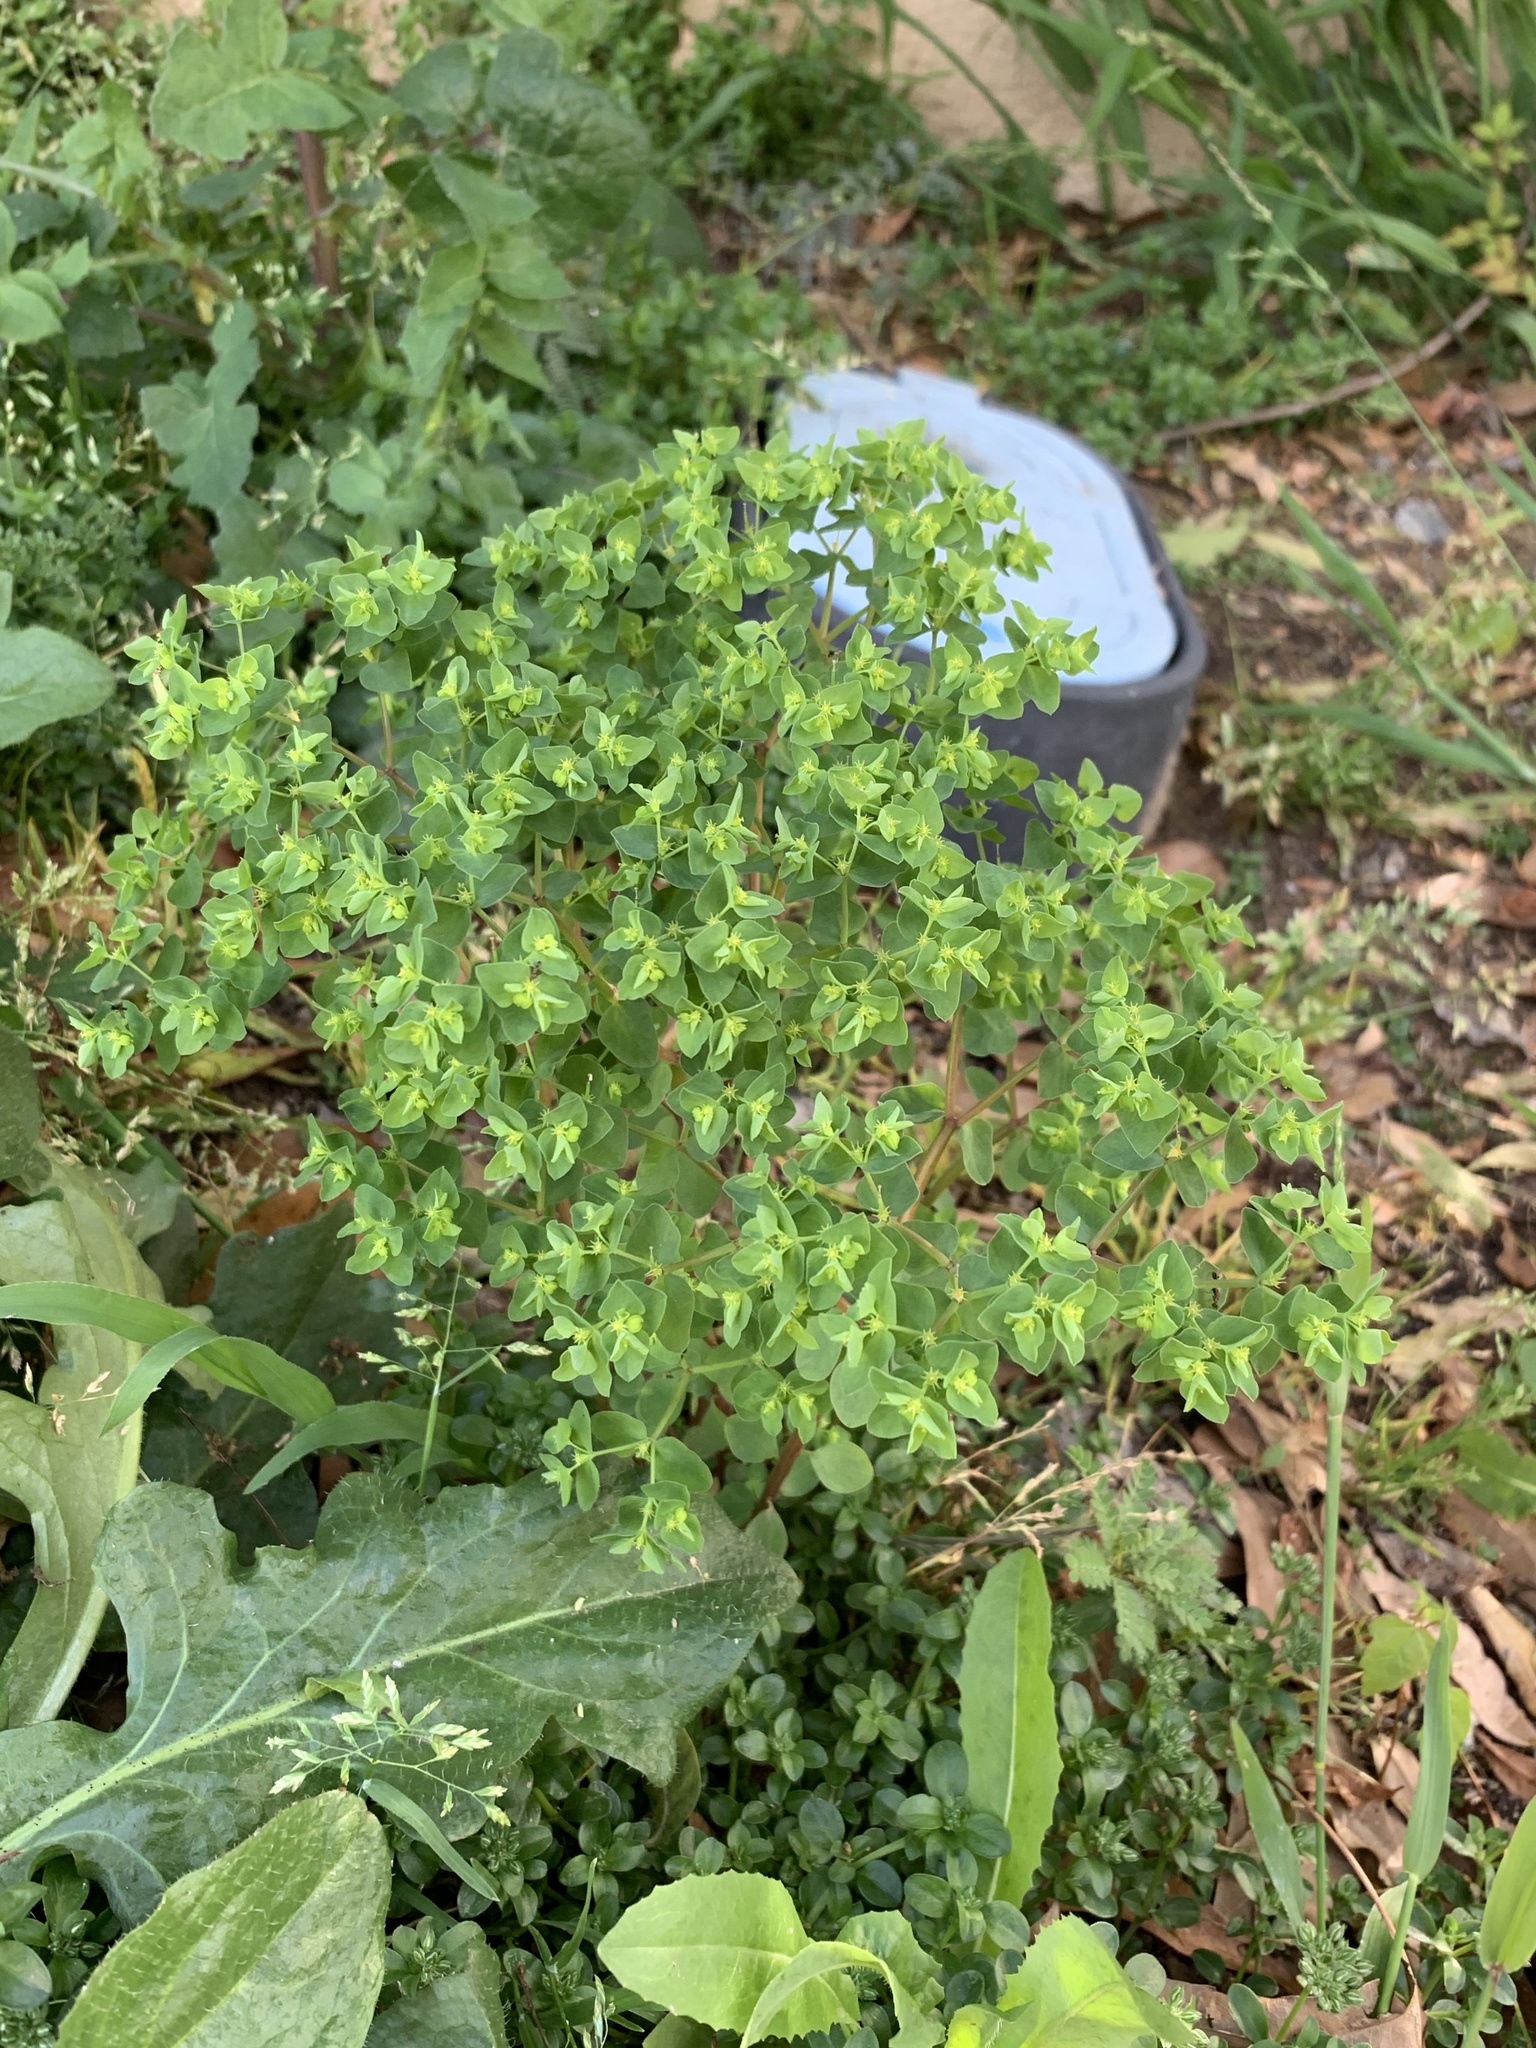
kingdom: Plantae
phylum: Tracheophyta
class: Magnoliopsida
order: Malpighiales
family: Euphorbiaceae
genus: Euphorbia
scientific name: Euphorbia peplus
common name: Petty spurge
